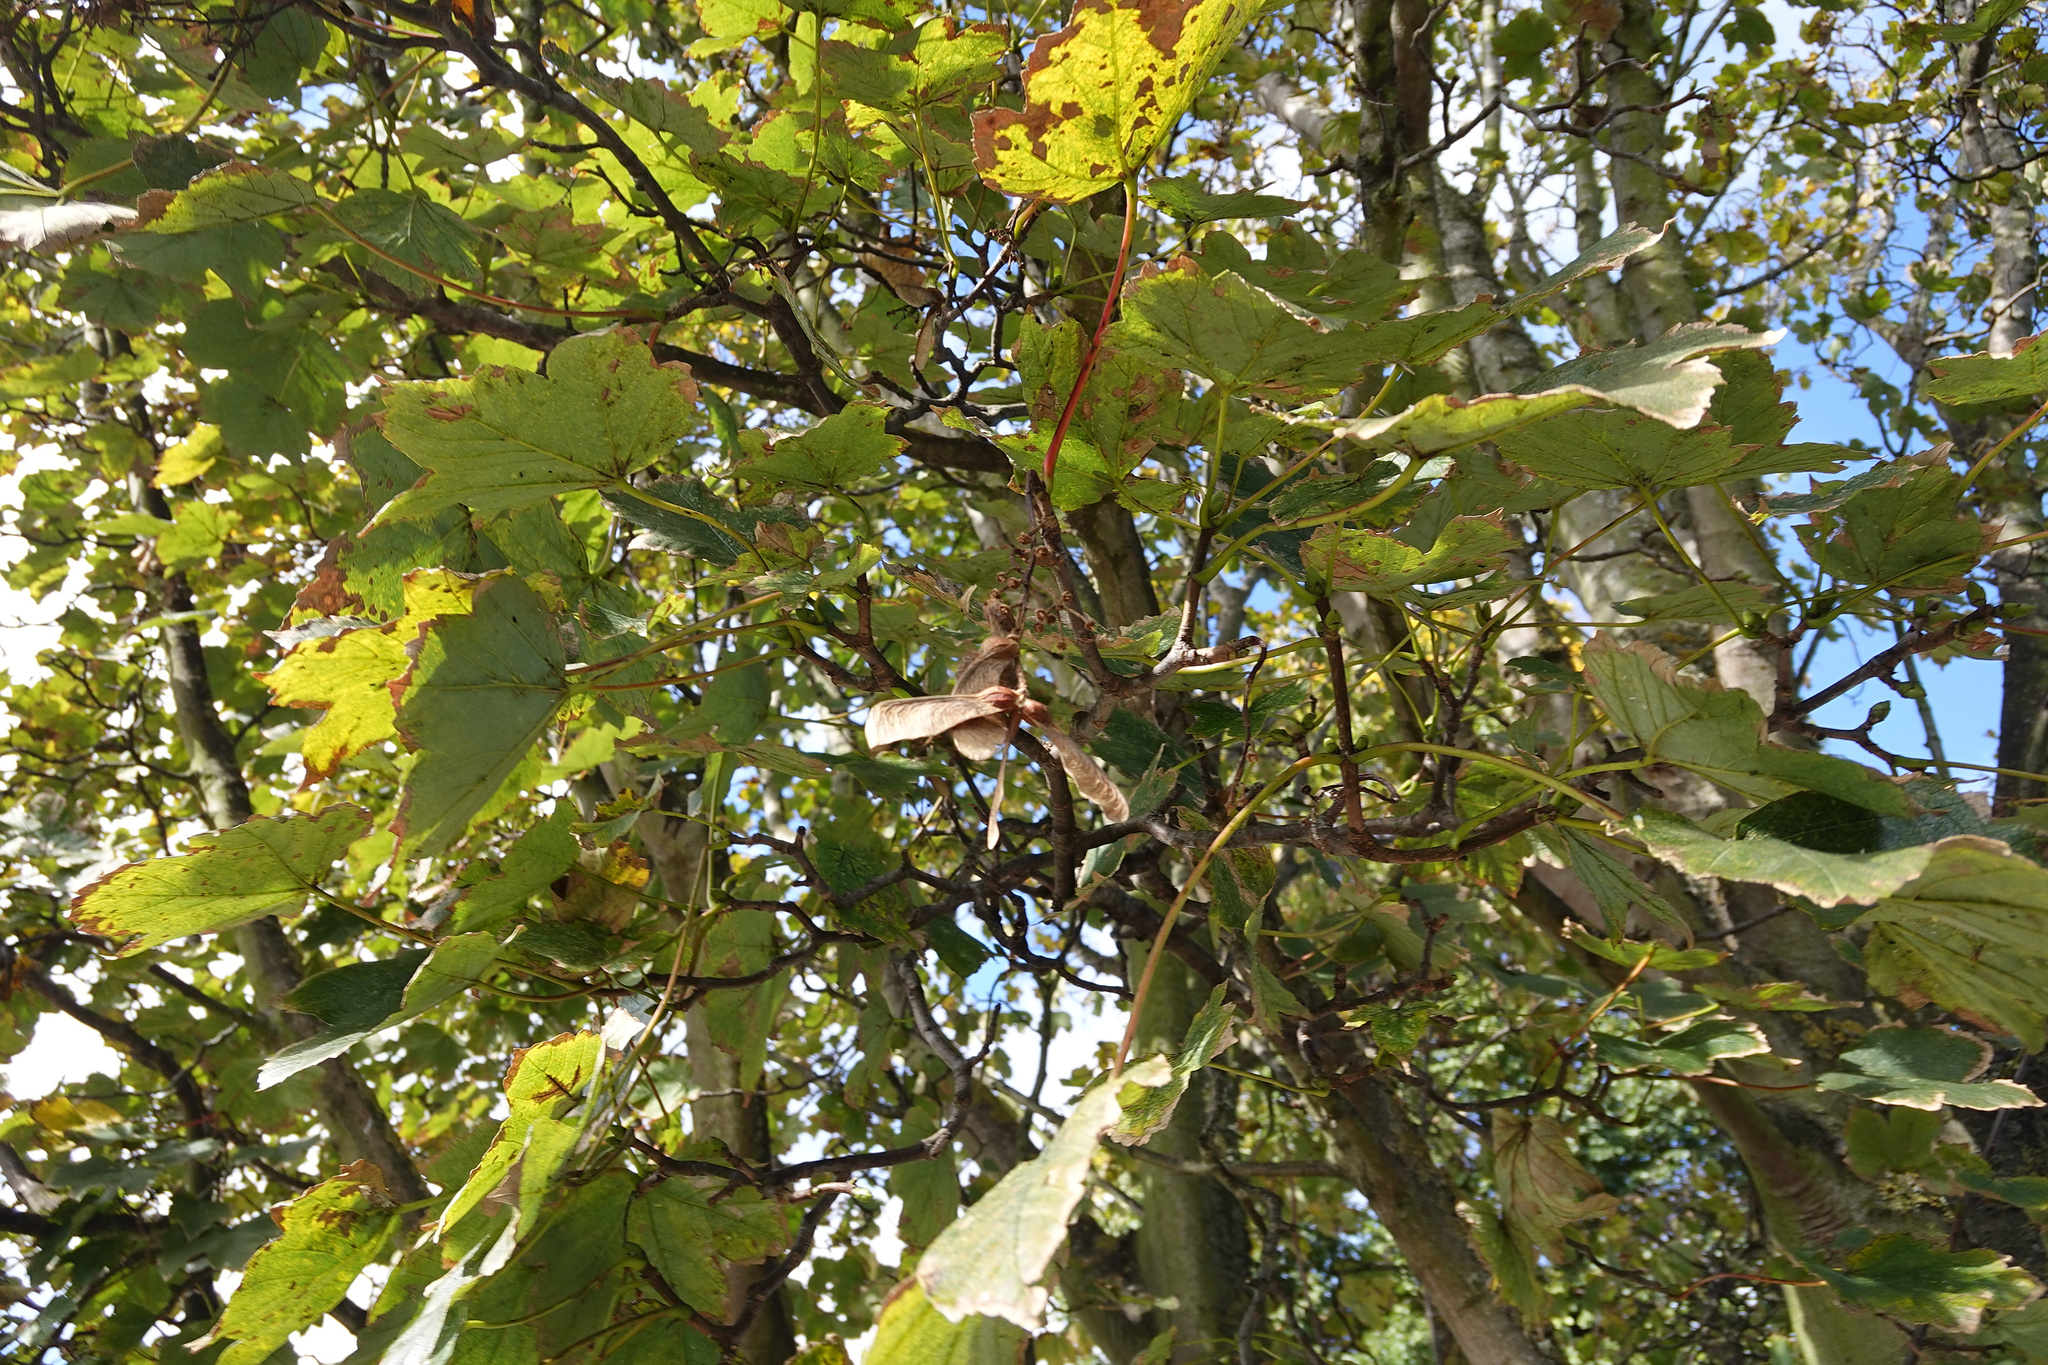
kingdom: Plantae
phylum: Tracheophyta
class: Magnoliopsida
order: Sapindales
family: Sapindaceae
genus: Acer
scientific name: Acer pseudoplatanus
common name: Sycamore
